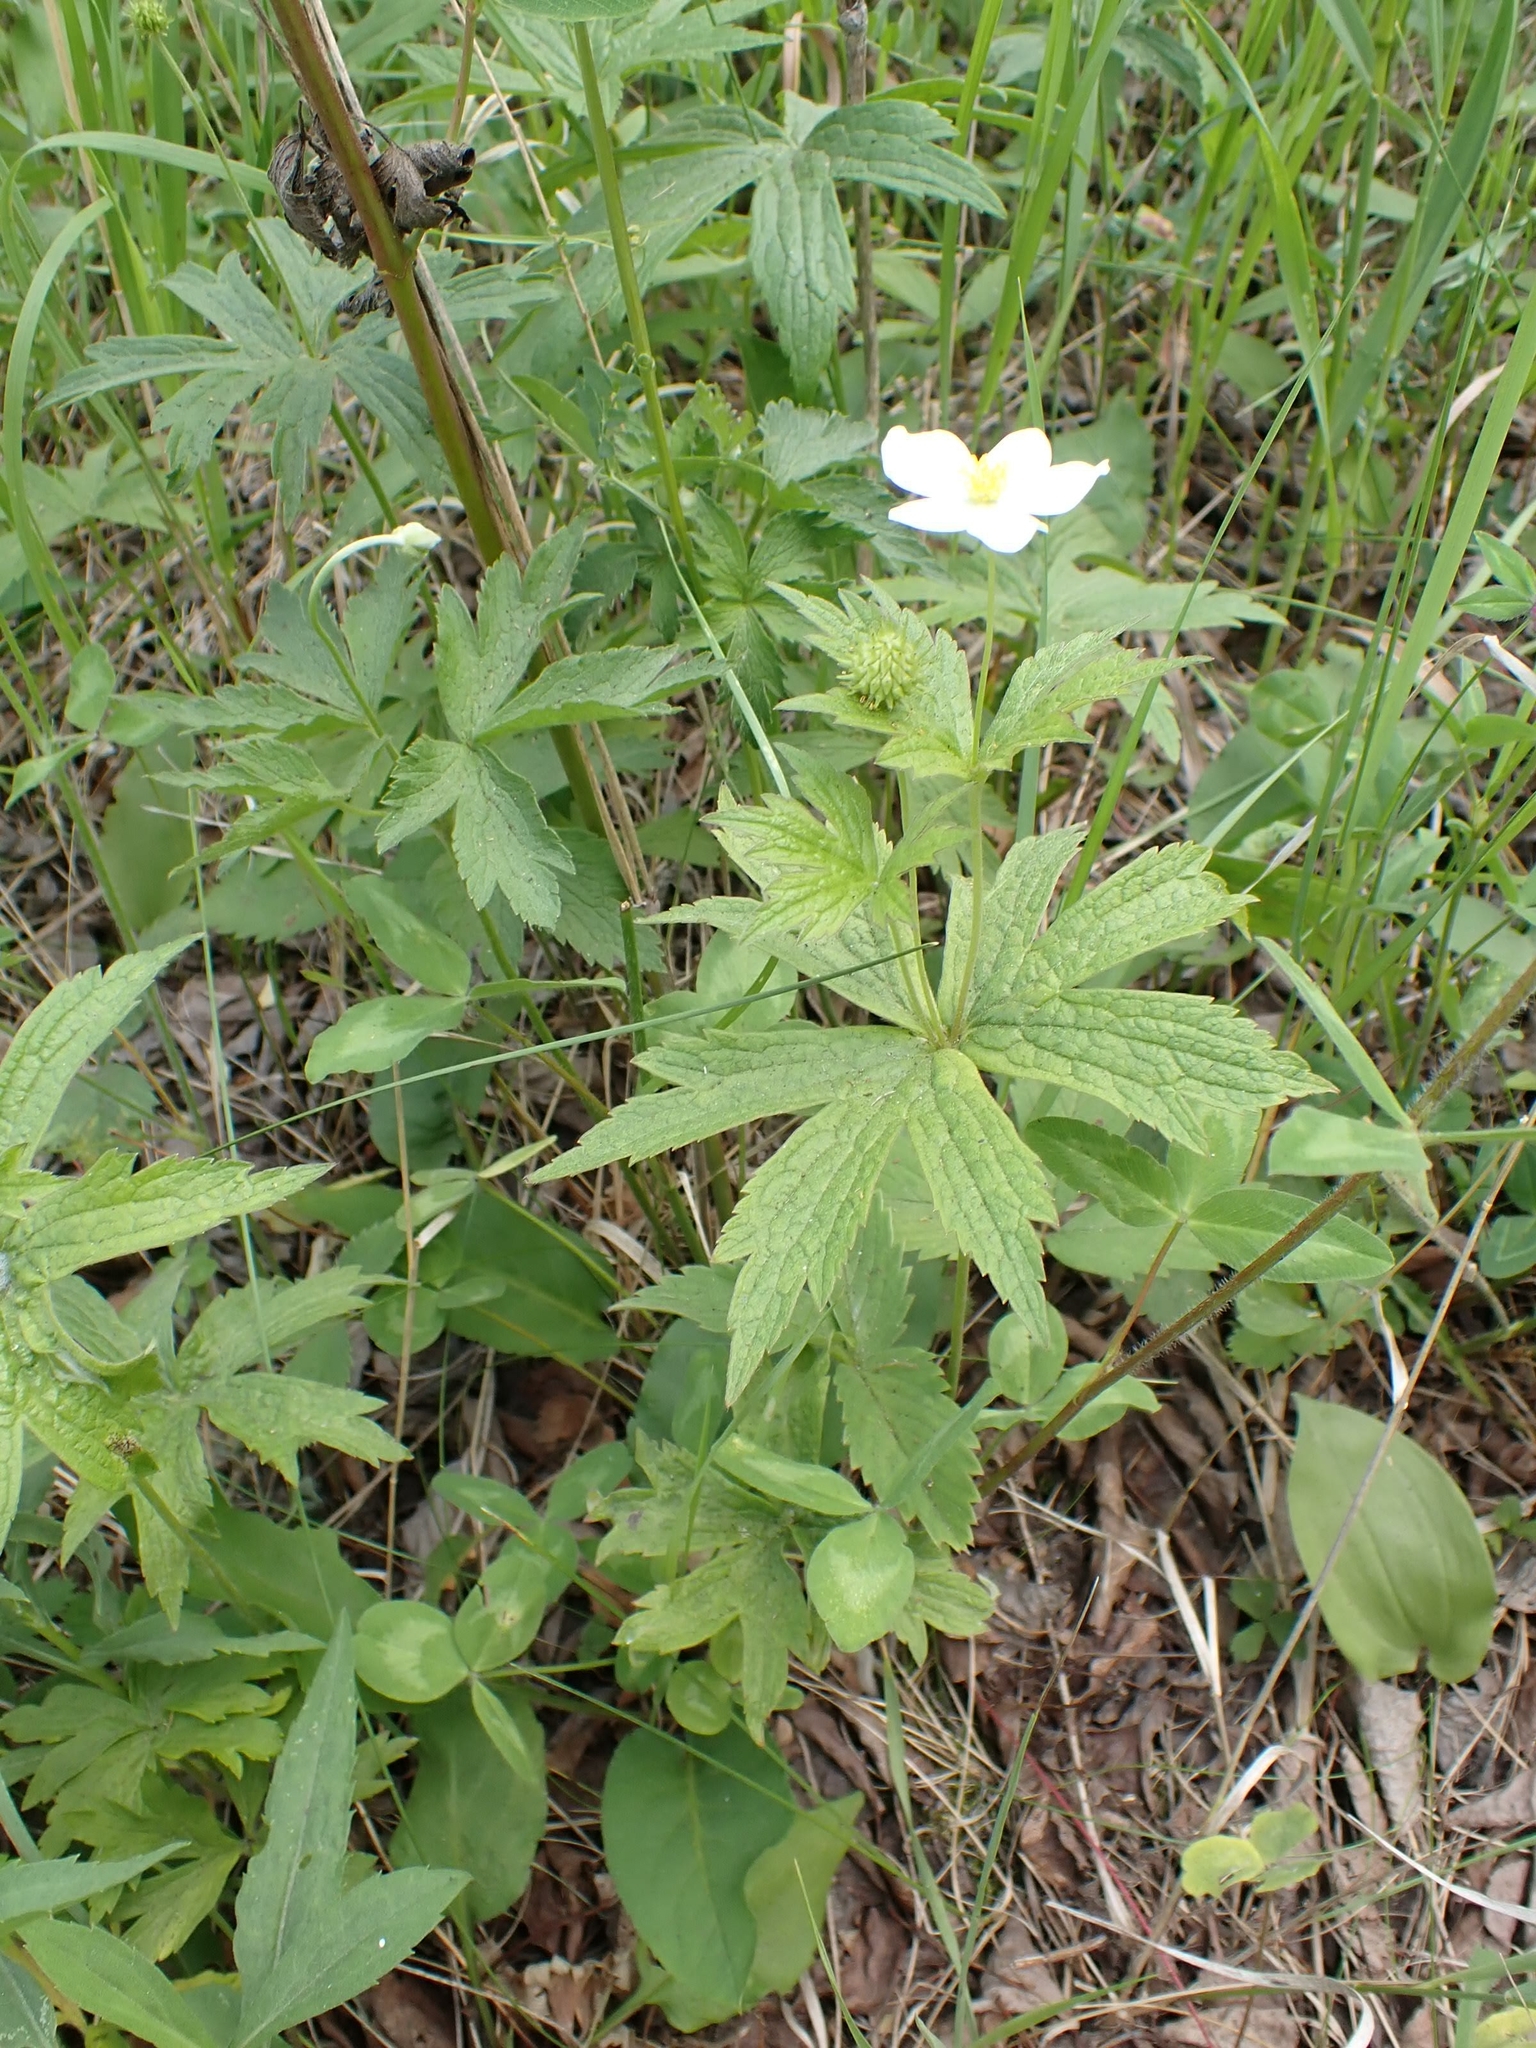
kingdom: Plantae
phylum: Tracheophyta
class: Magnoliopsida
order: Ranunculales
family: Ranunculaceae
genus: Anemonastrum
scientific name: Anemonastrum canadense
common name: Canada anemone
